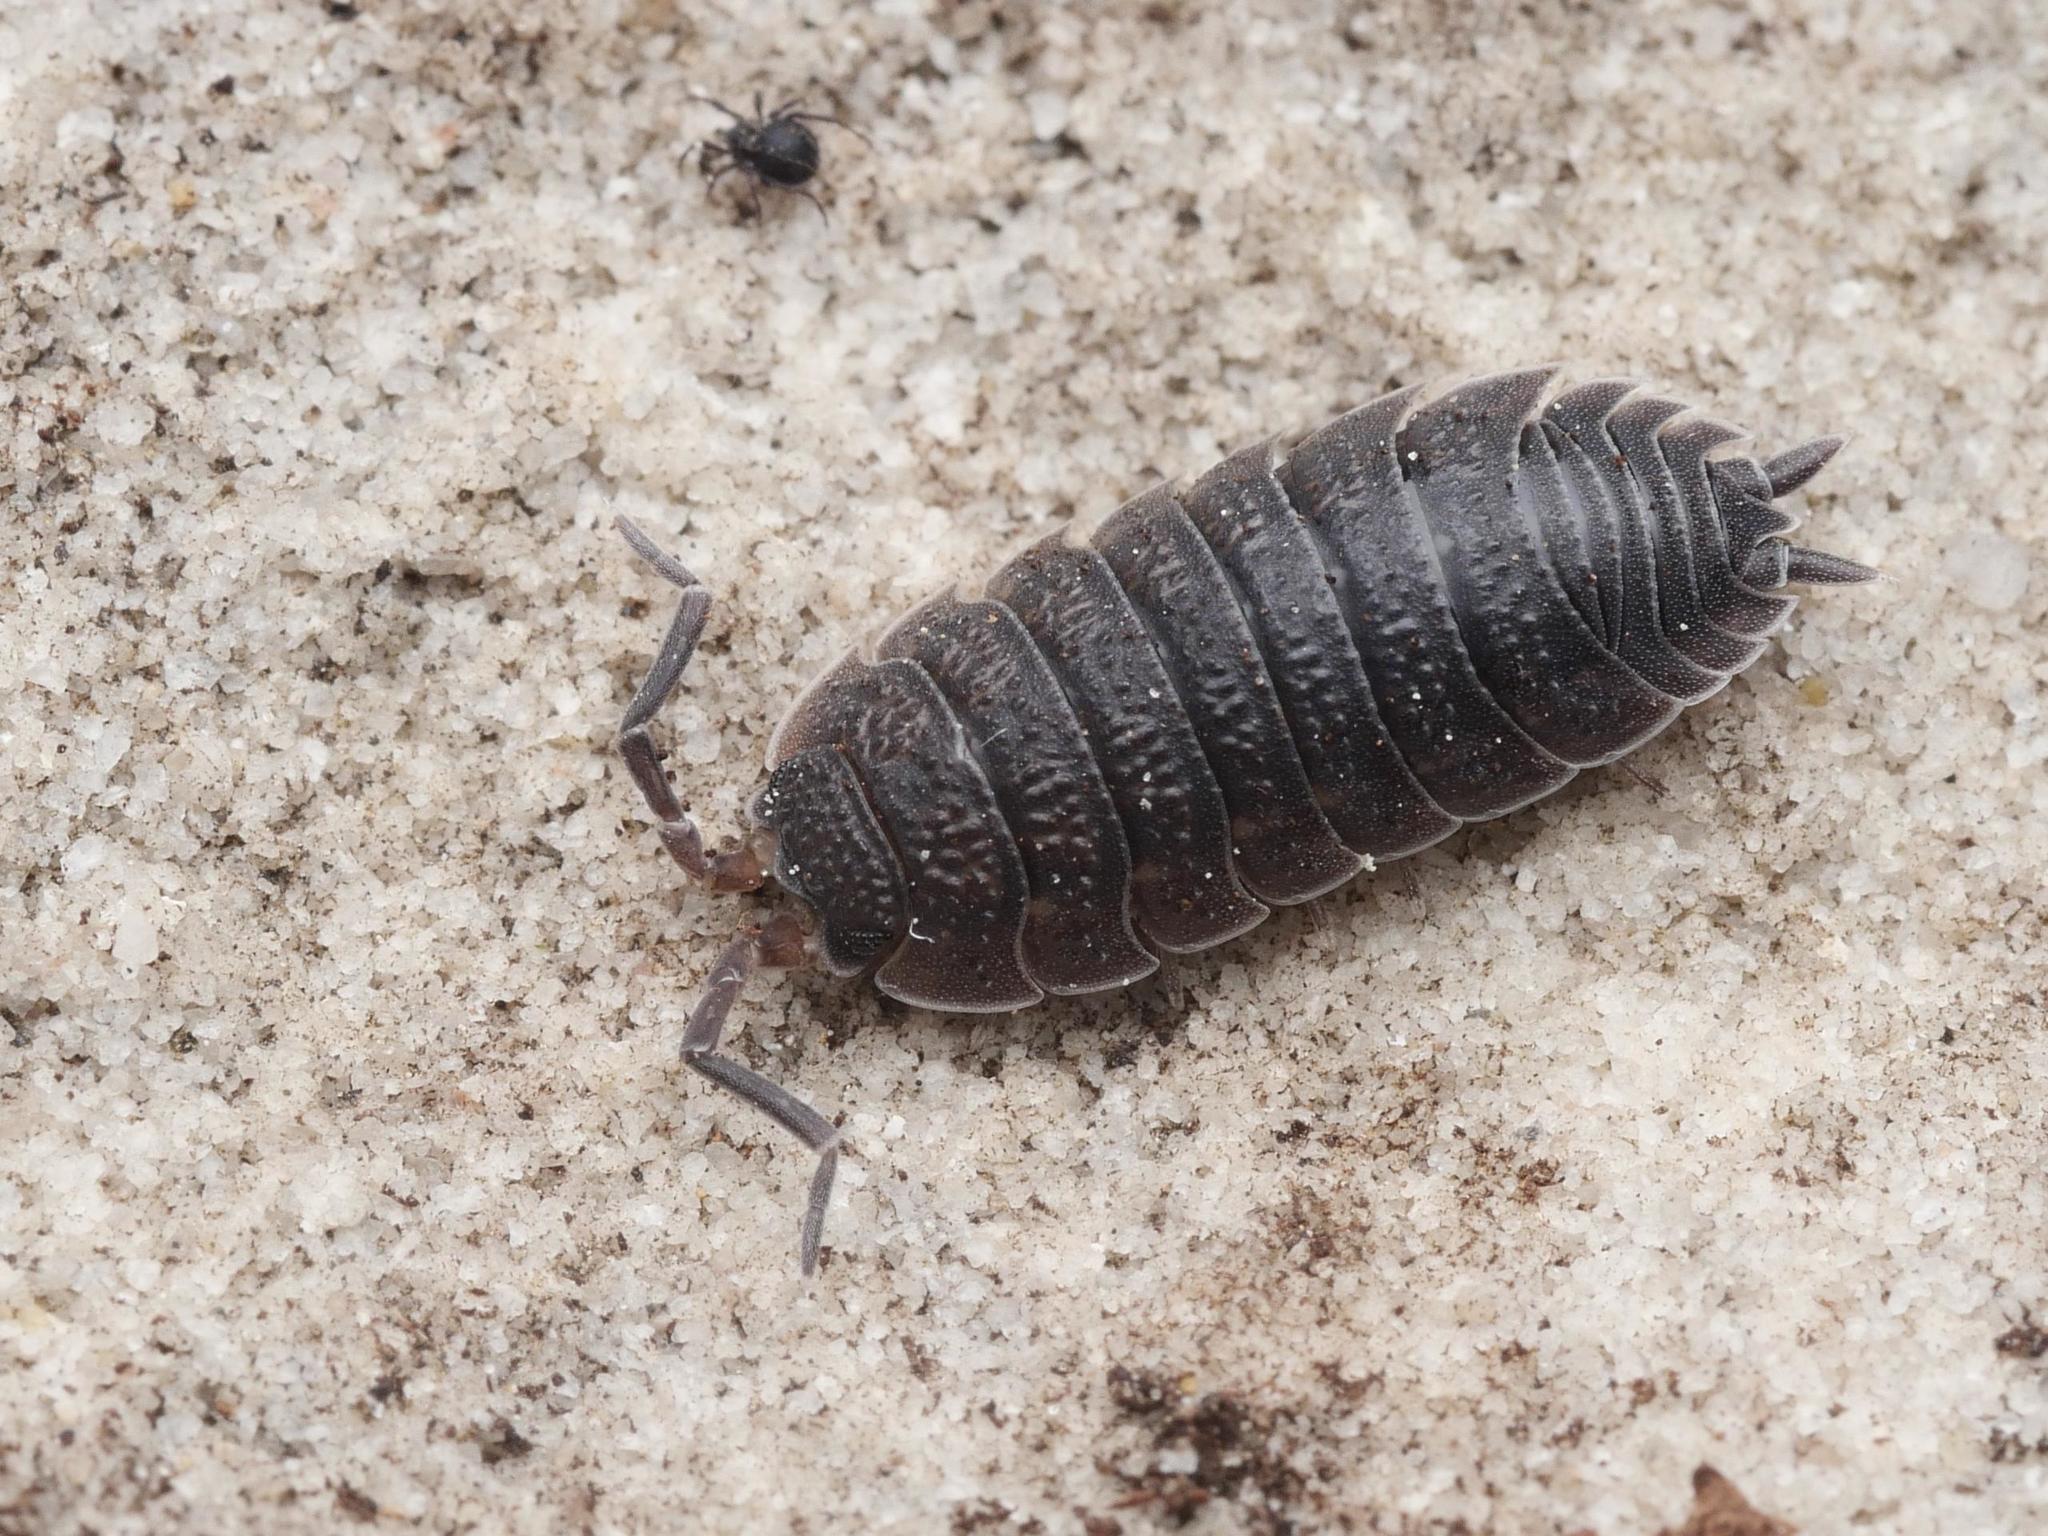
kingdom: Animalia
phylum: Arthropoda
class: Malacostraca
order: Isopoda
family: Porcellionidae
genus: Porcellio
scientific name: Porcellio scaber
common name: Common rough woodlouse
